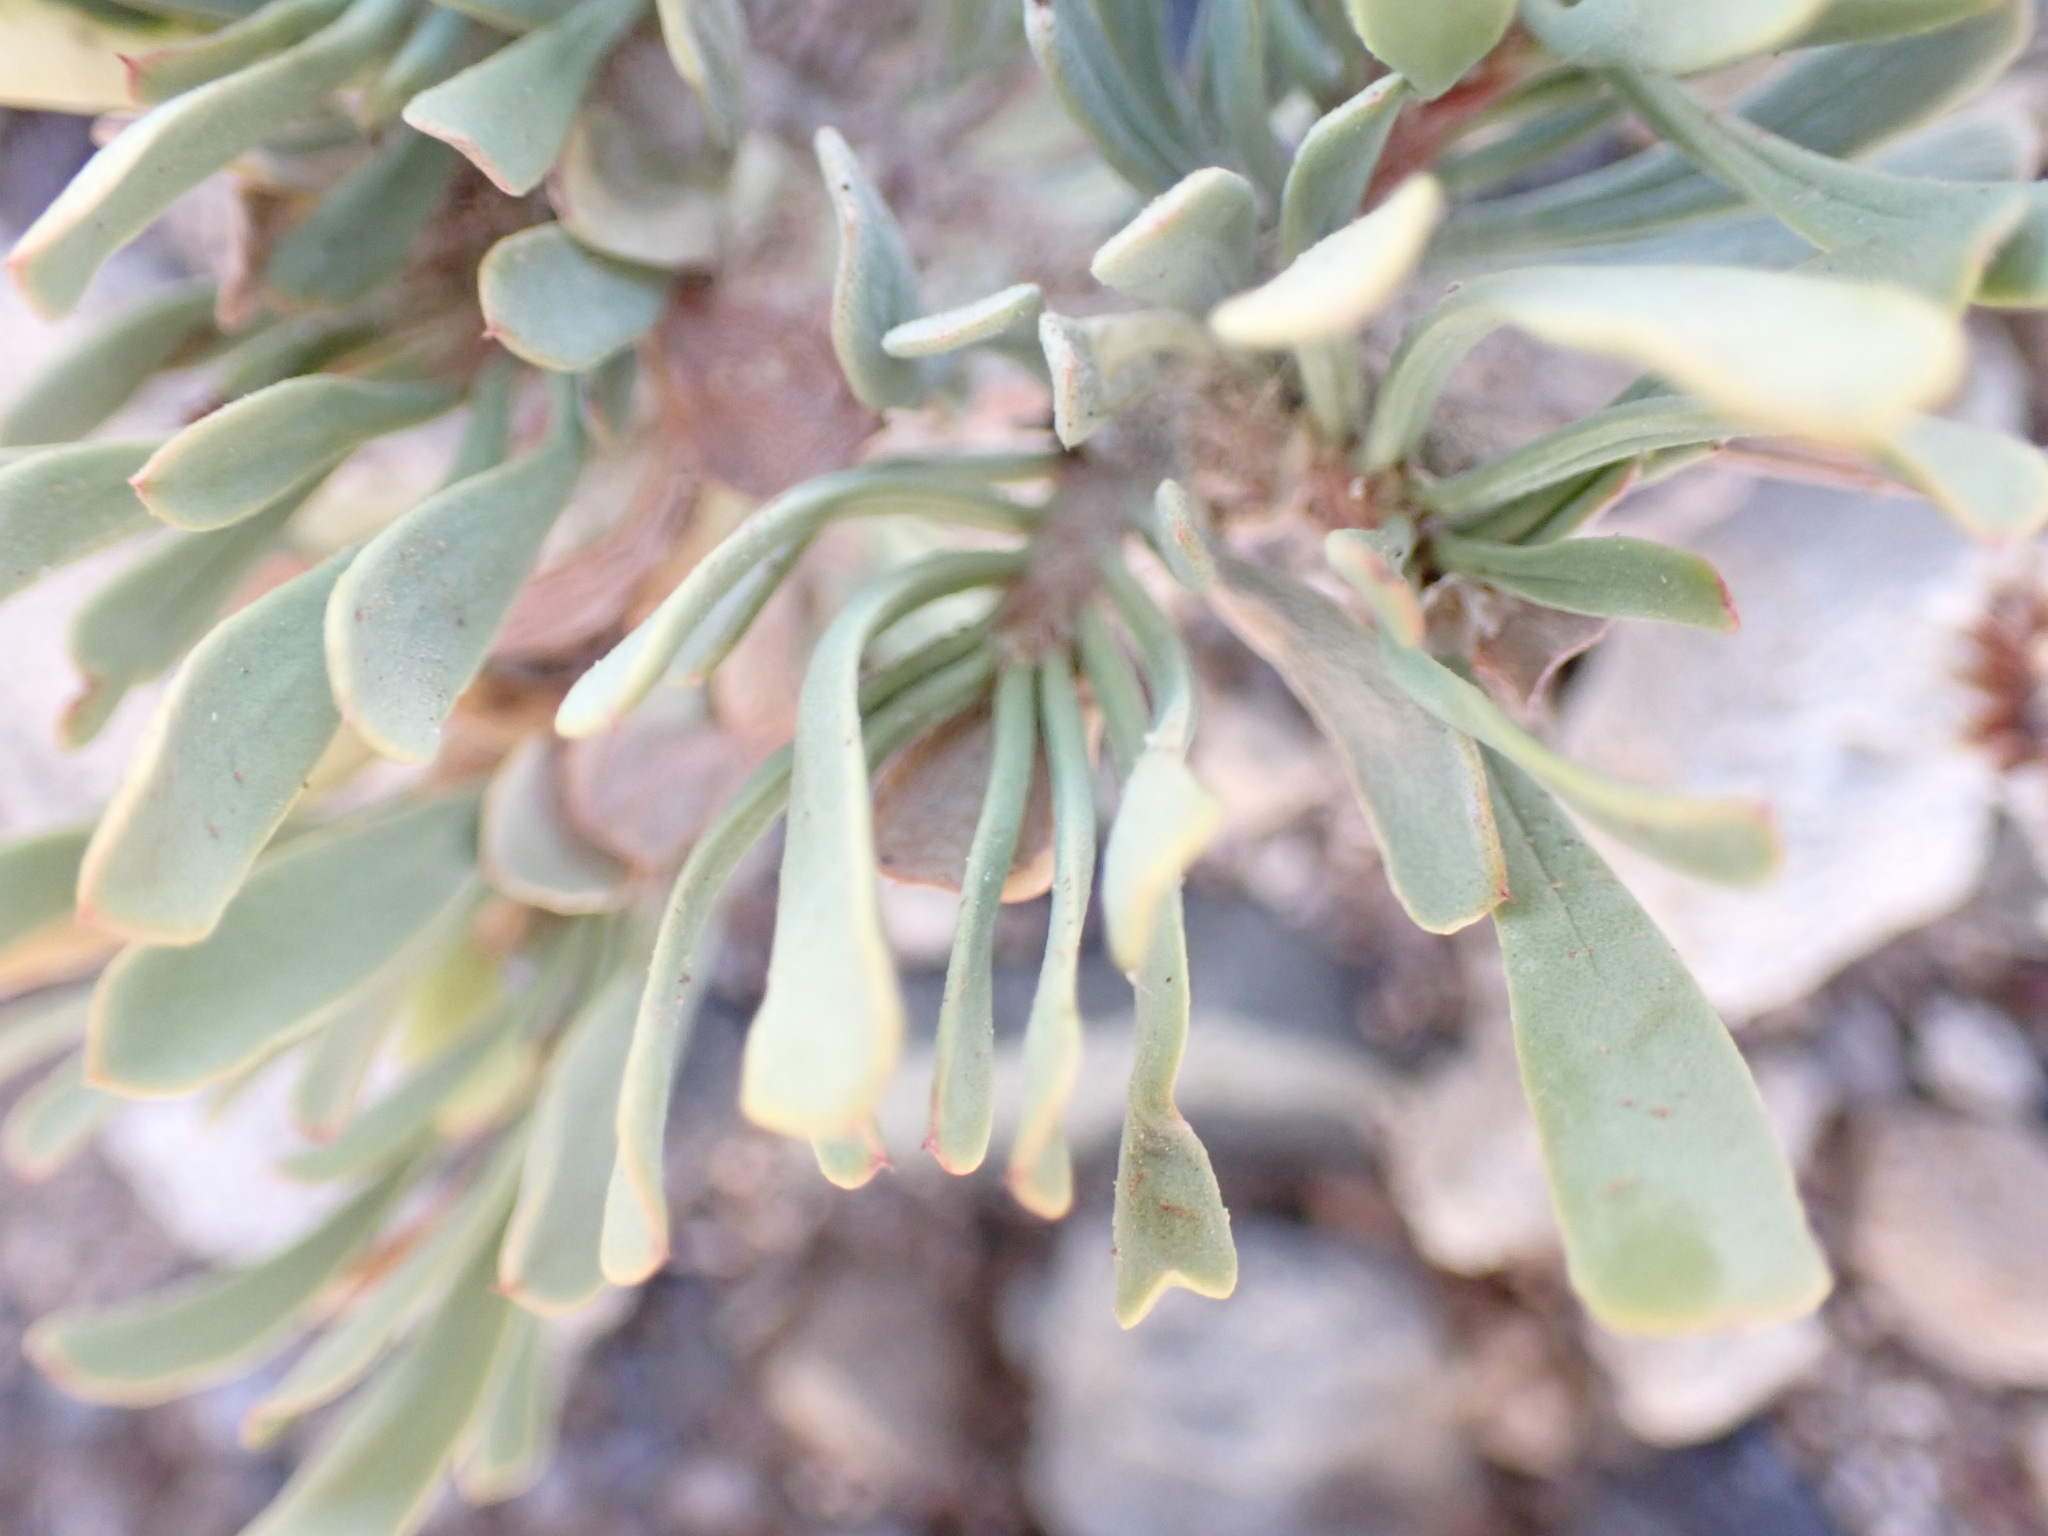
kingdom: Plantae
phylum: Tracheophyta
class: Magnoliopsida
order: Caryophyllales
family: Plumbaginaceae
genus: Limonium
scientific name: Limonium pectinatum
